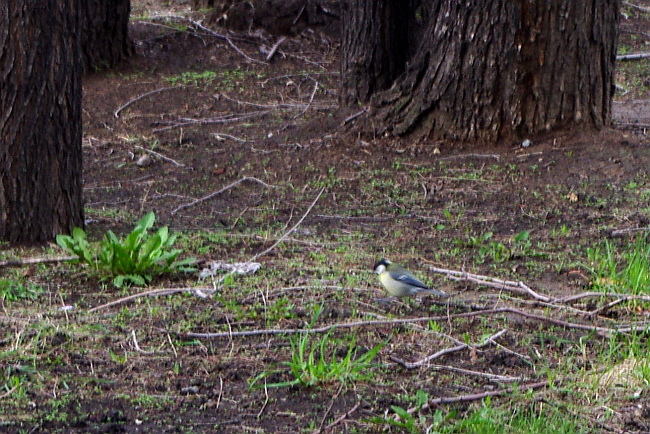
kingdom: Animalia
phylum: Chordata
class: Aves
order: Passeriformes
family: Paridae
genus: Parus
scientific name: Parus major
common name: Great tit
